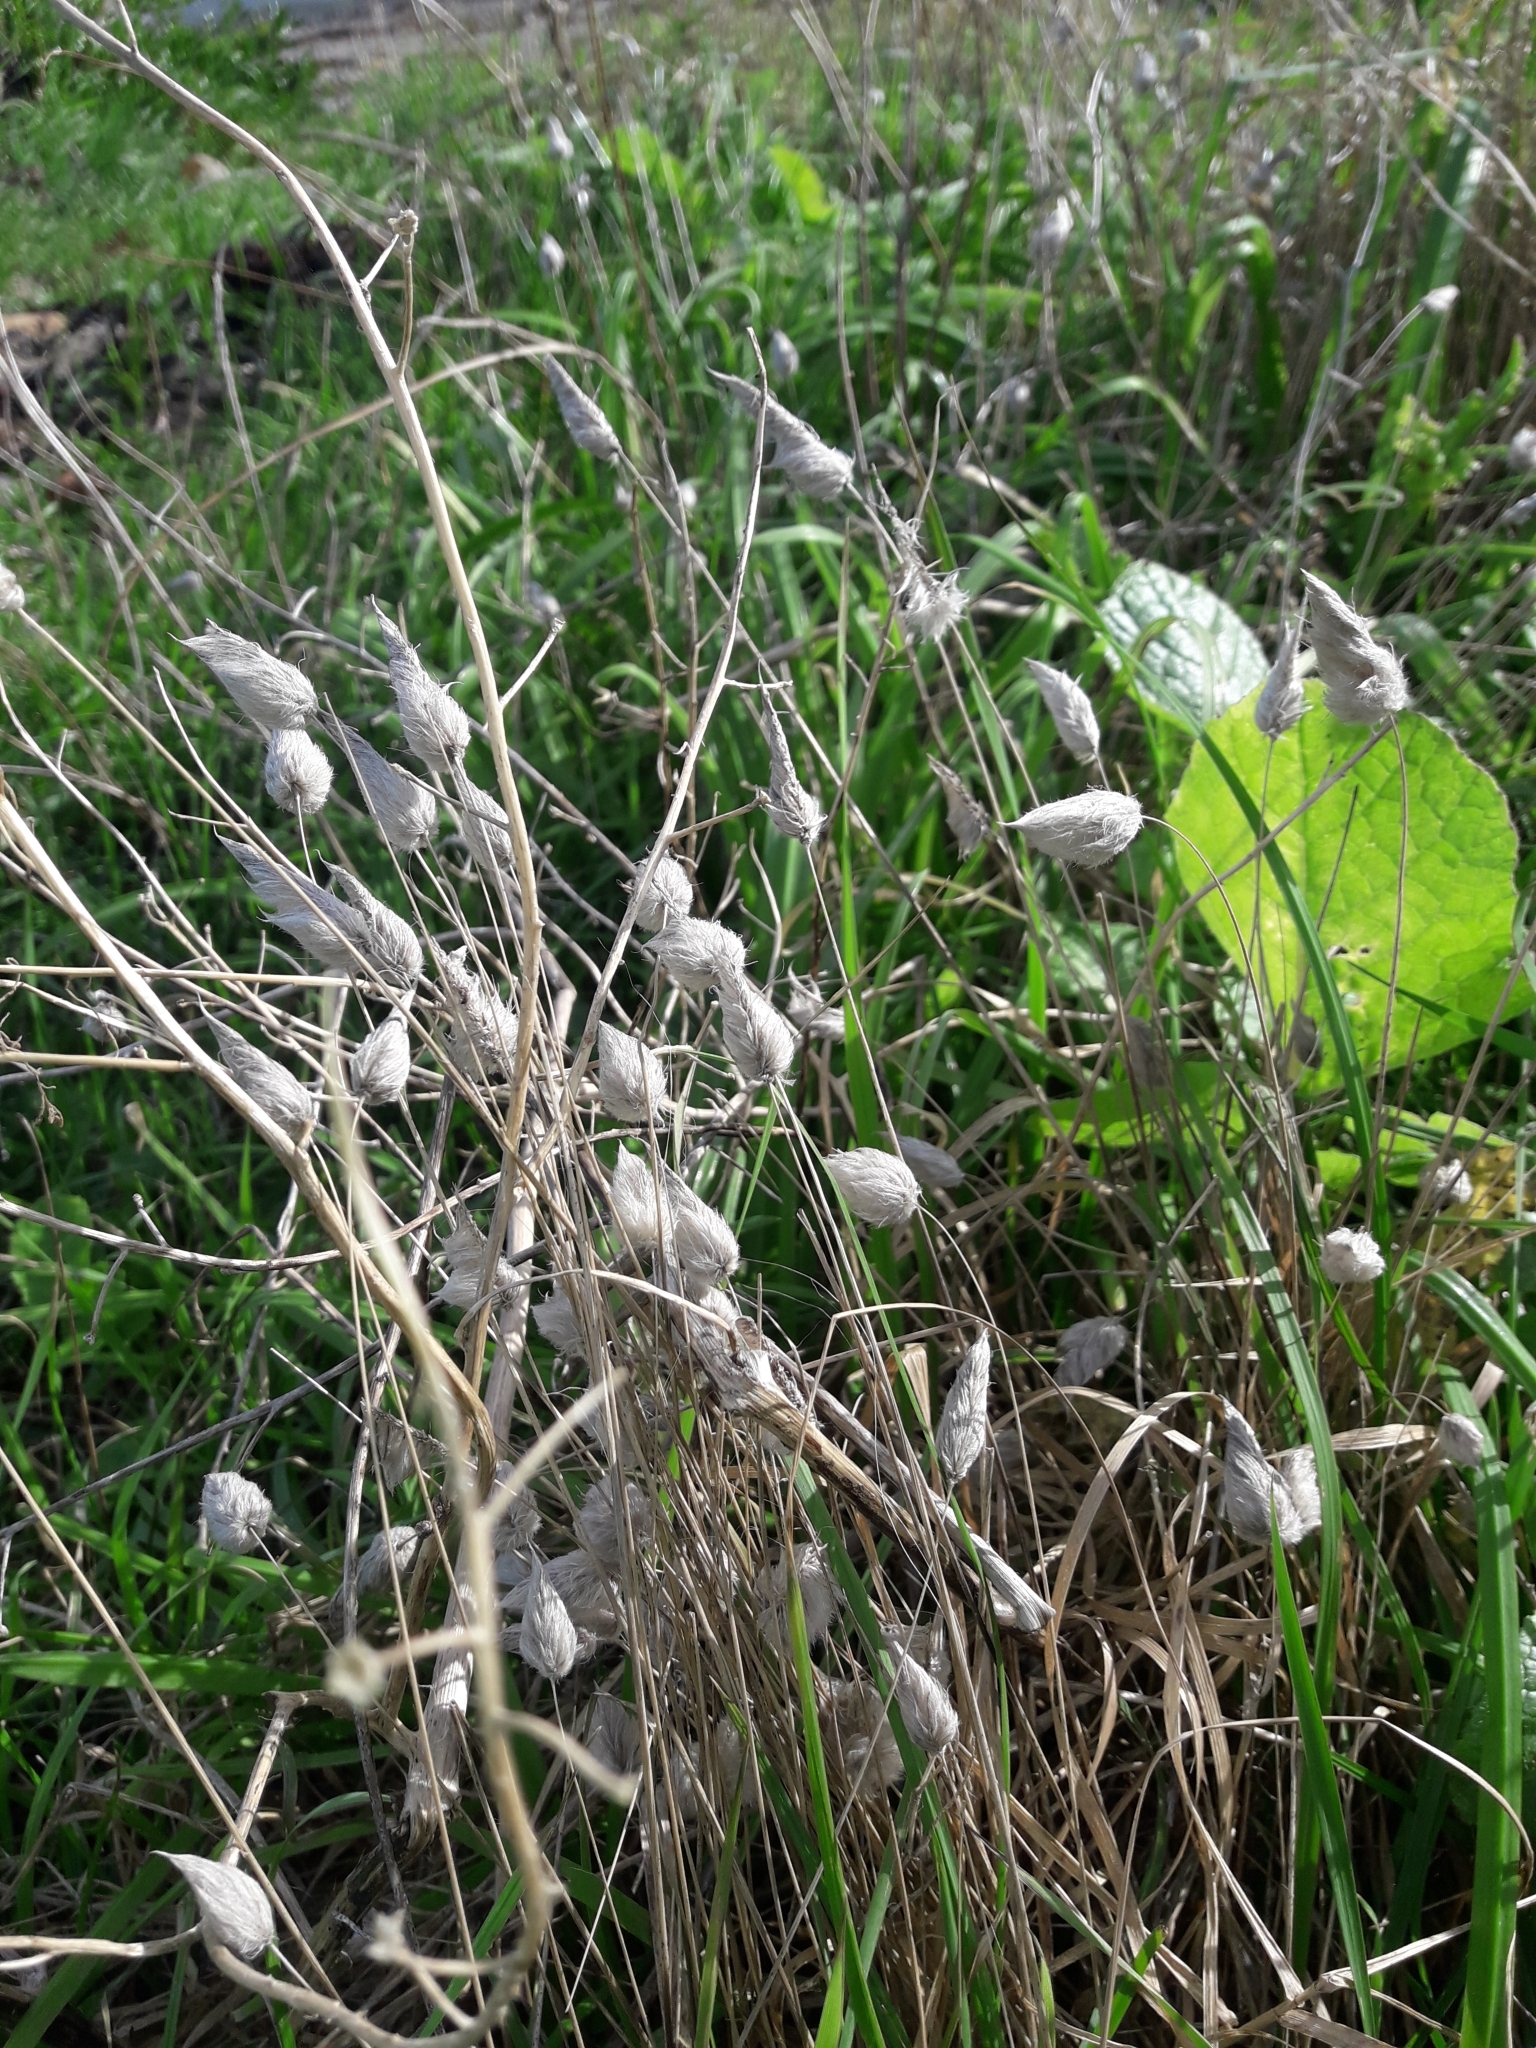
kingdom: Plantae
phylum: Tracheophyta
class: Liliopsida
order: Poales
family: Poaceae
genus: Lagurus
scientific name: Lagurus ovatus
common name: Hare's-tail
